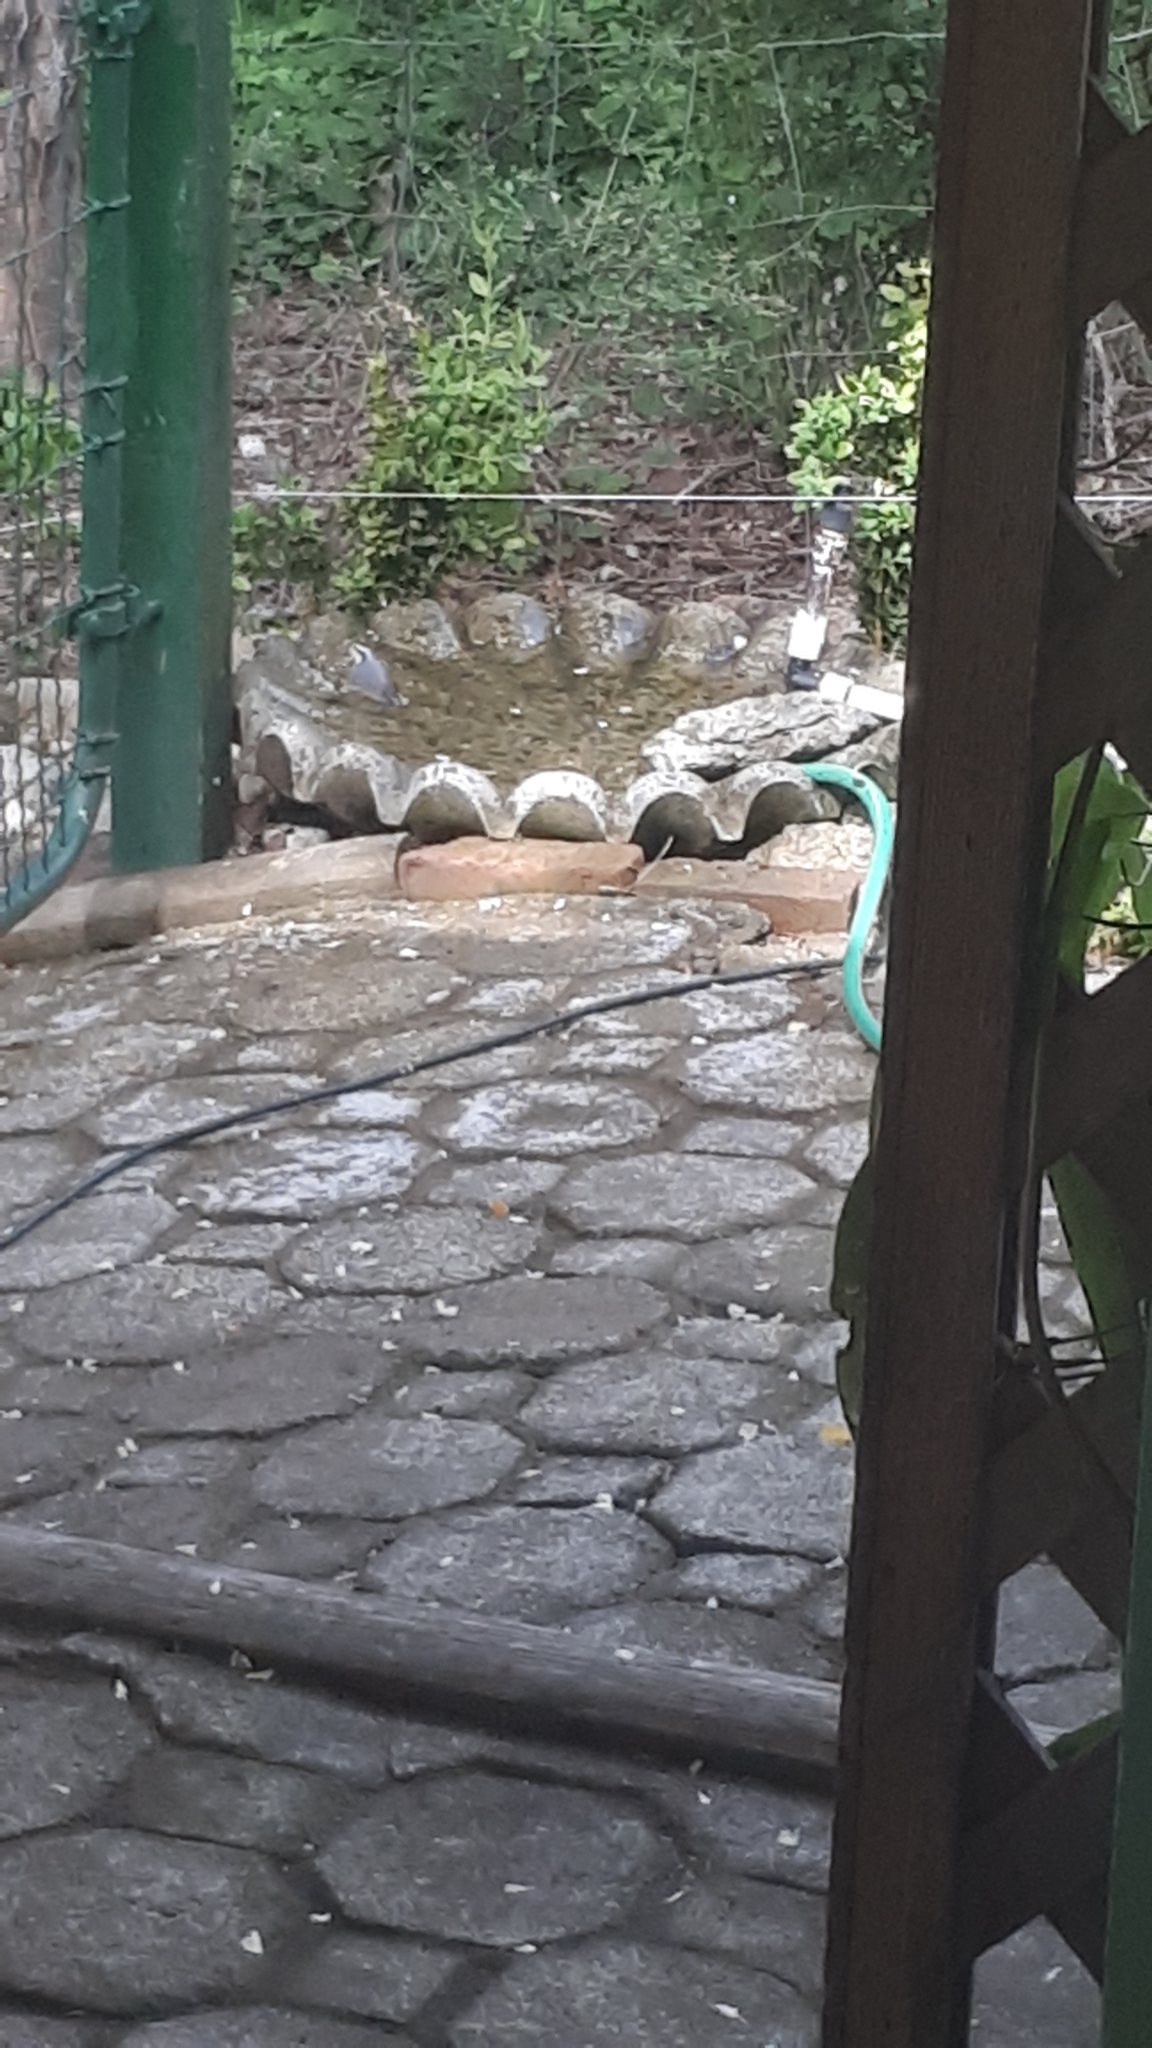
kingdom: Animalia
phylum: Chordata
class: Aves
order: Passeriformes
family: Sittidae
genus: Sitta
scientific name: Sitta canadensis
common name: Red-breasted nuthatch
